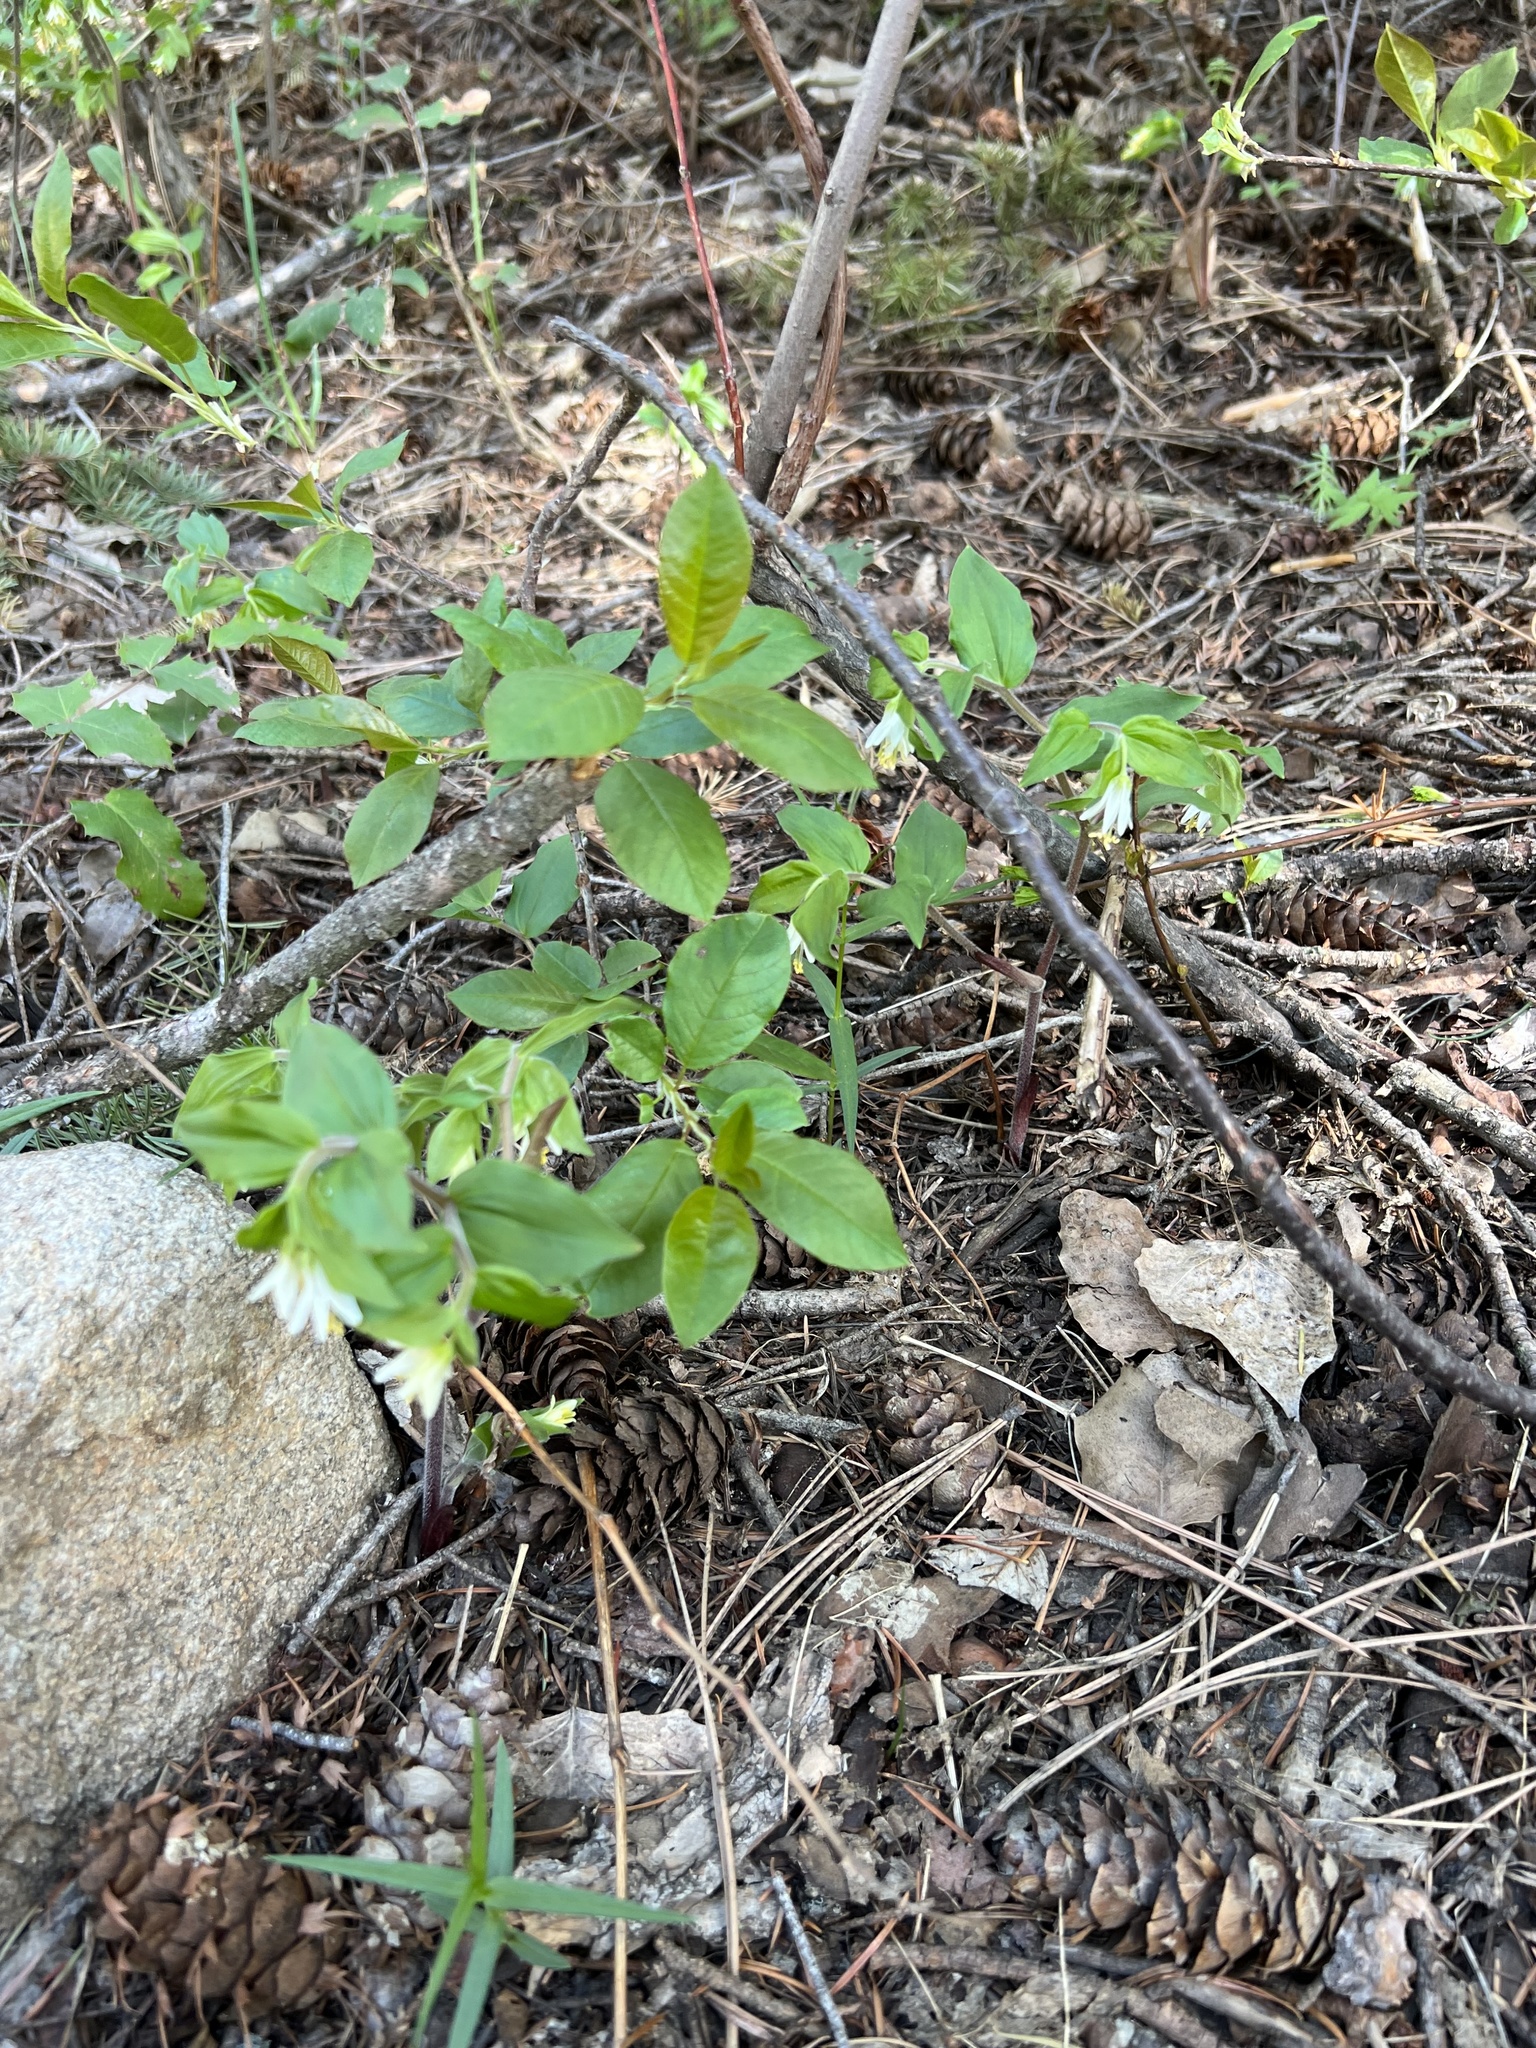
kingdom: Plantae
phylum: Tracheophyta
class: Liliopsida
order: Liliales
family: Liliaceae
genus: Prosartes
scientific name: Prosartes trachycarpa
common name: Rough-fruit fairy-bells
